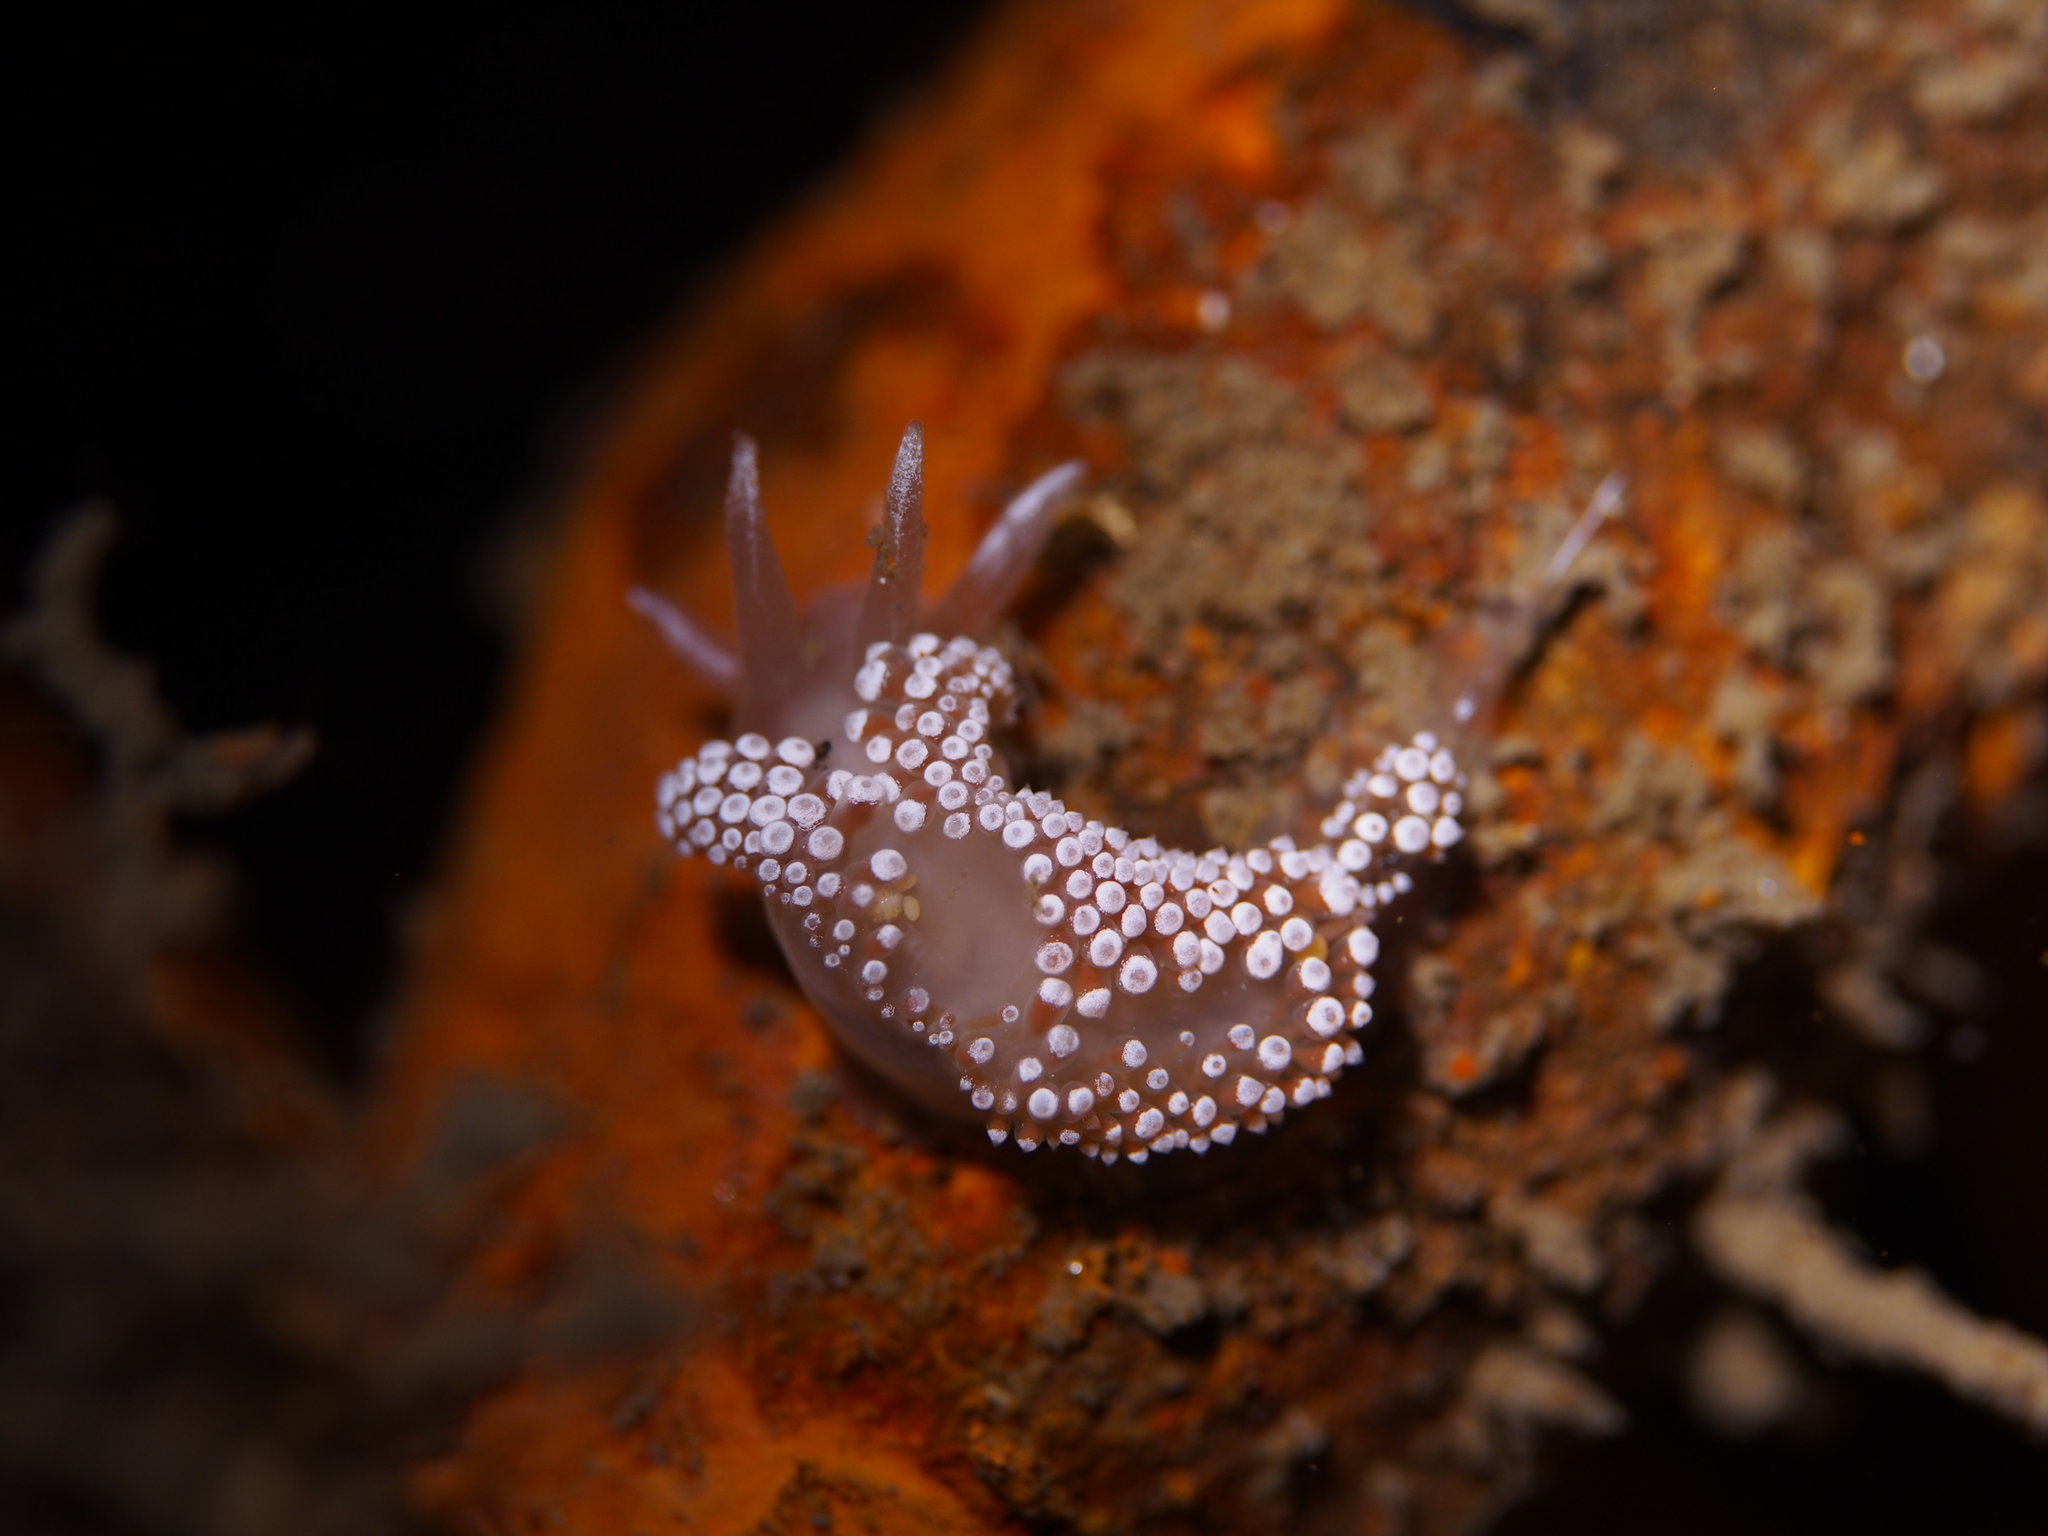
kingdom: Animalia
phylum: Mollusca
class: Gastropoda
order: Nudibranchia
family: Coryphellidae
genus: Coryphella
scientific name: Coryphella verrucosa
